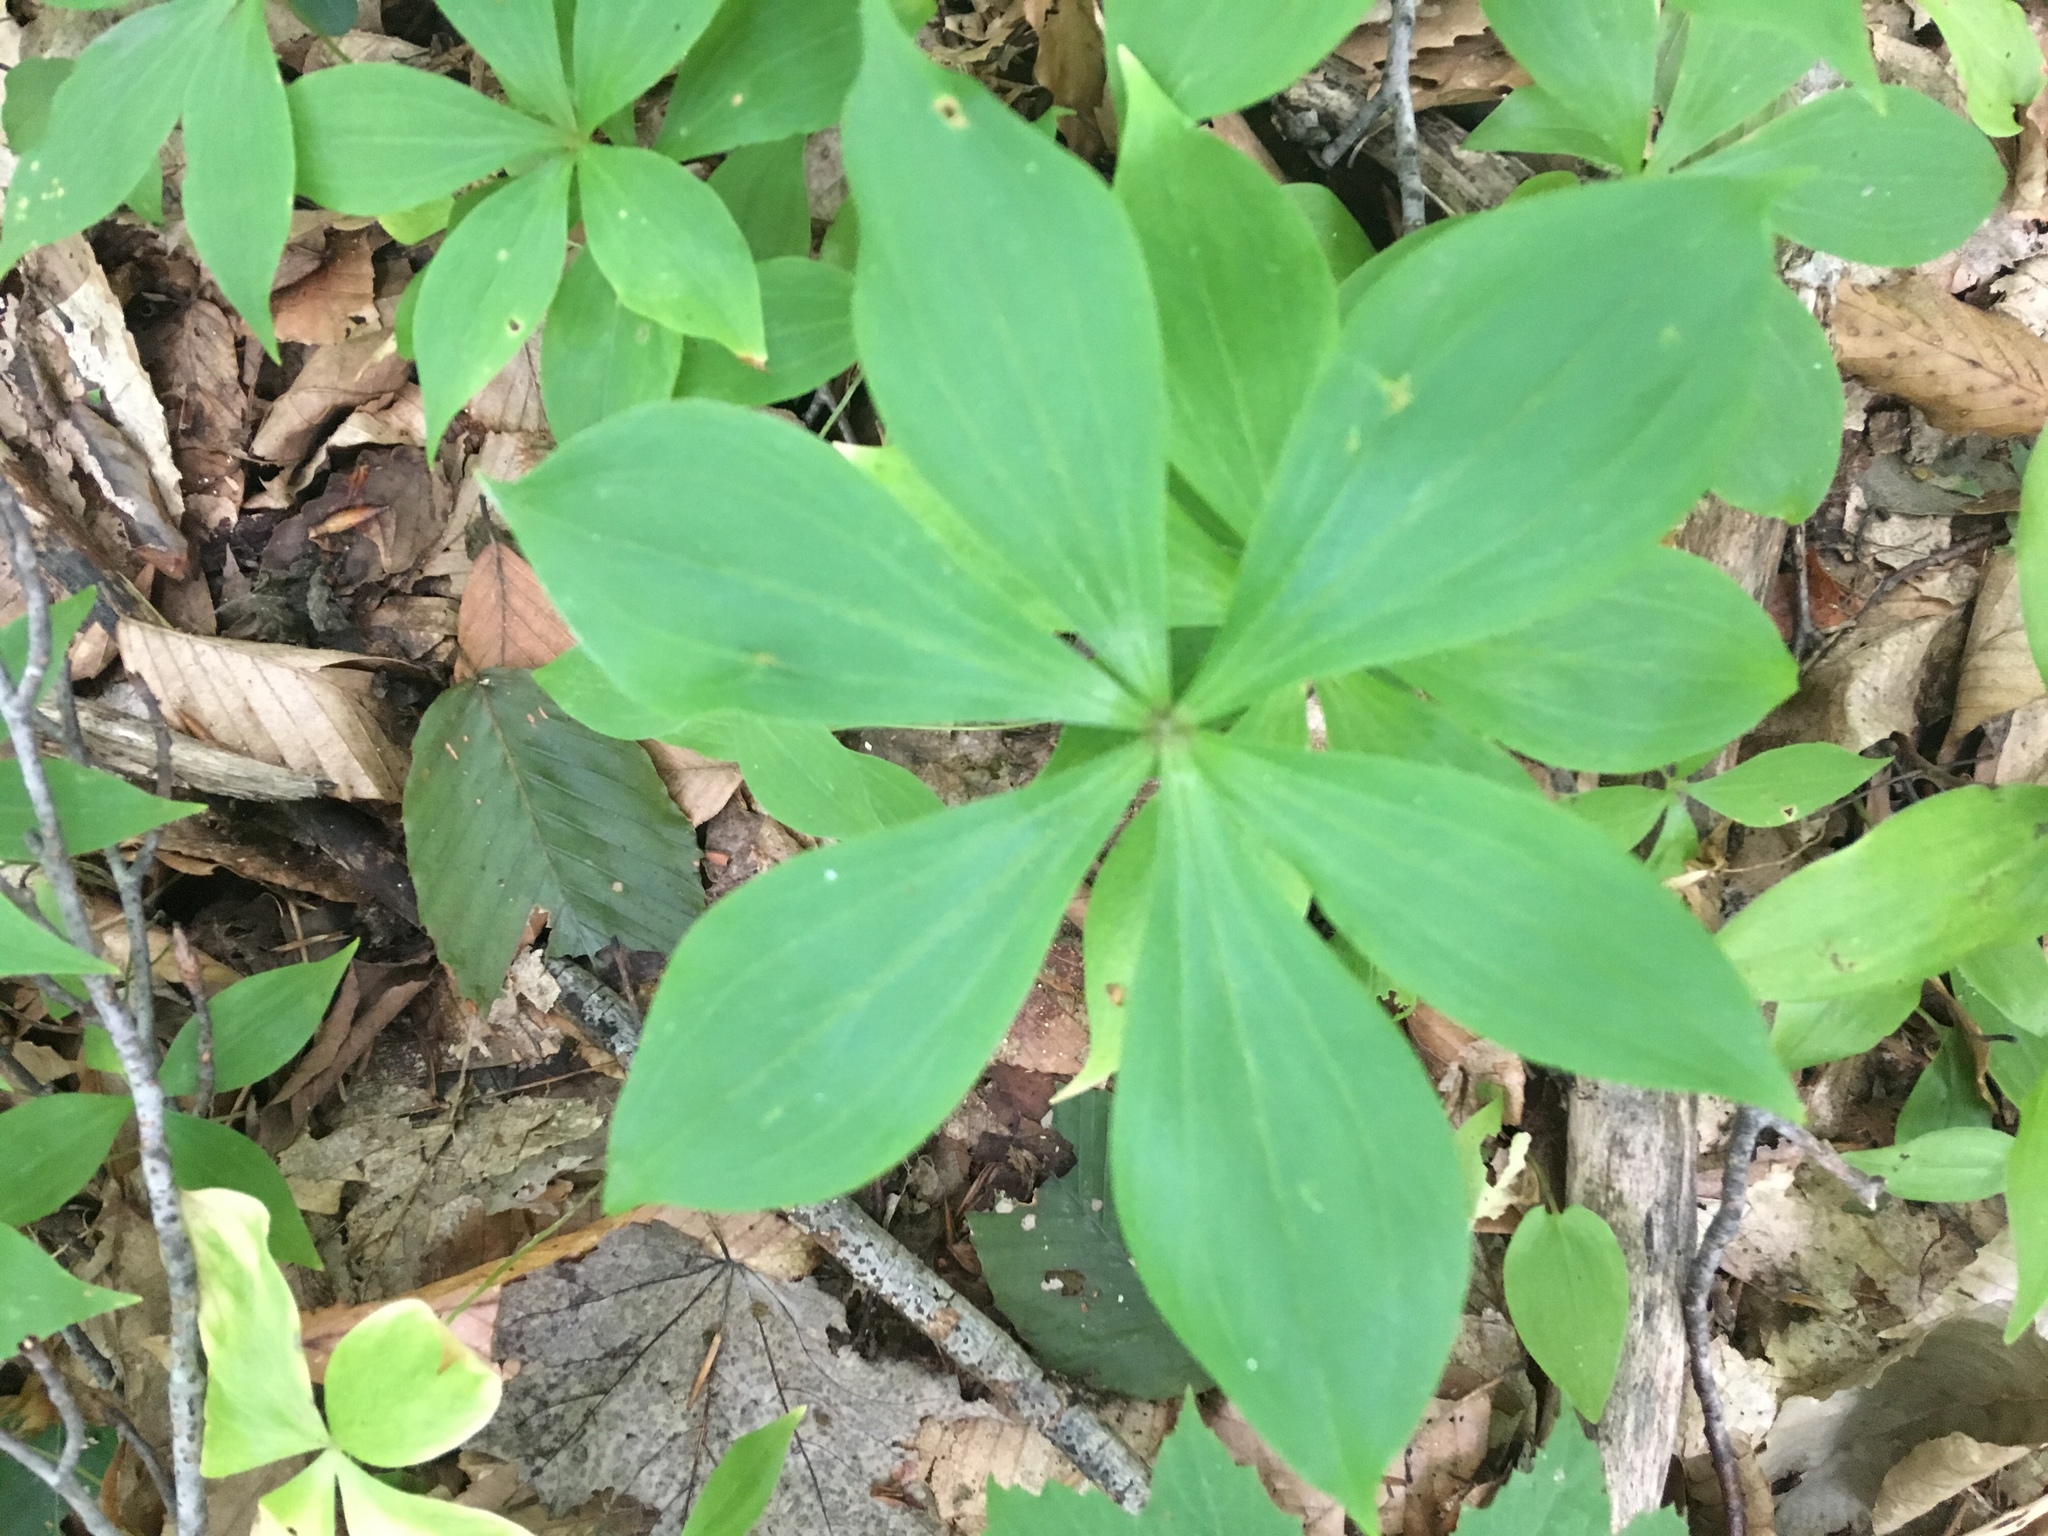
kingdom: Plantae
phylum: Tracheophyta
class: Liliopsida
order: Liliales
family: Liliaceae
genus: Medeola
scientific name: Medeola virginiana
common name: Indian cucumber-root
